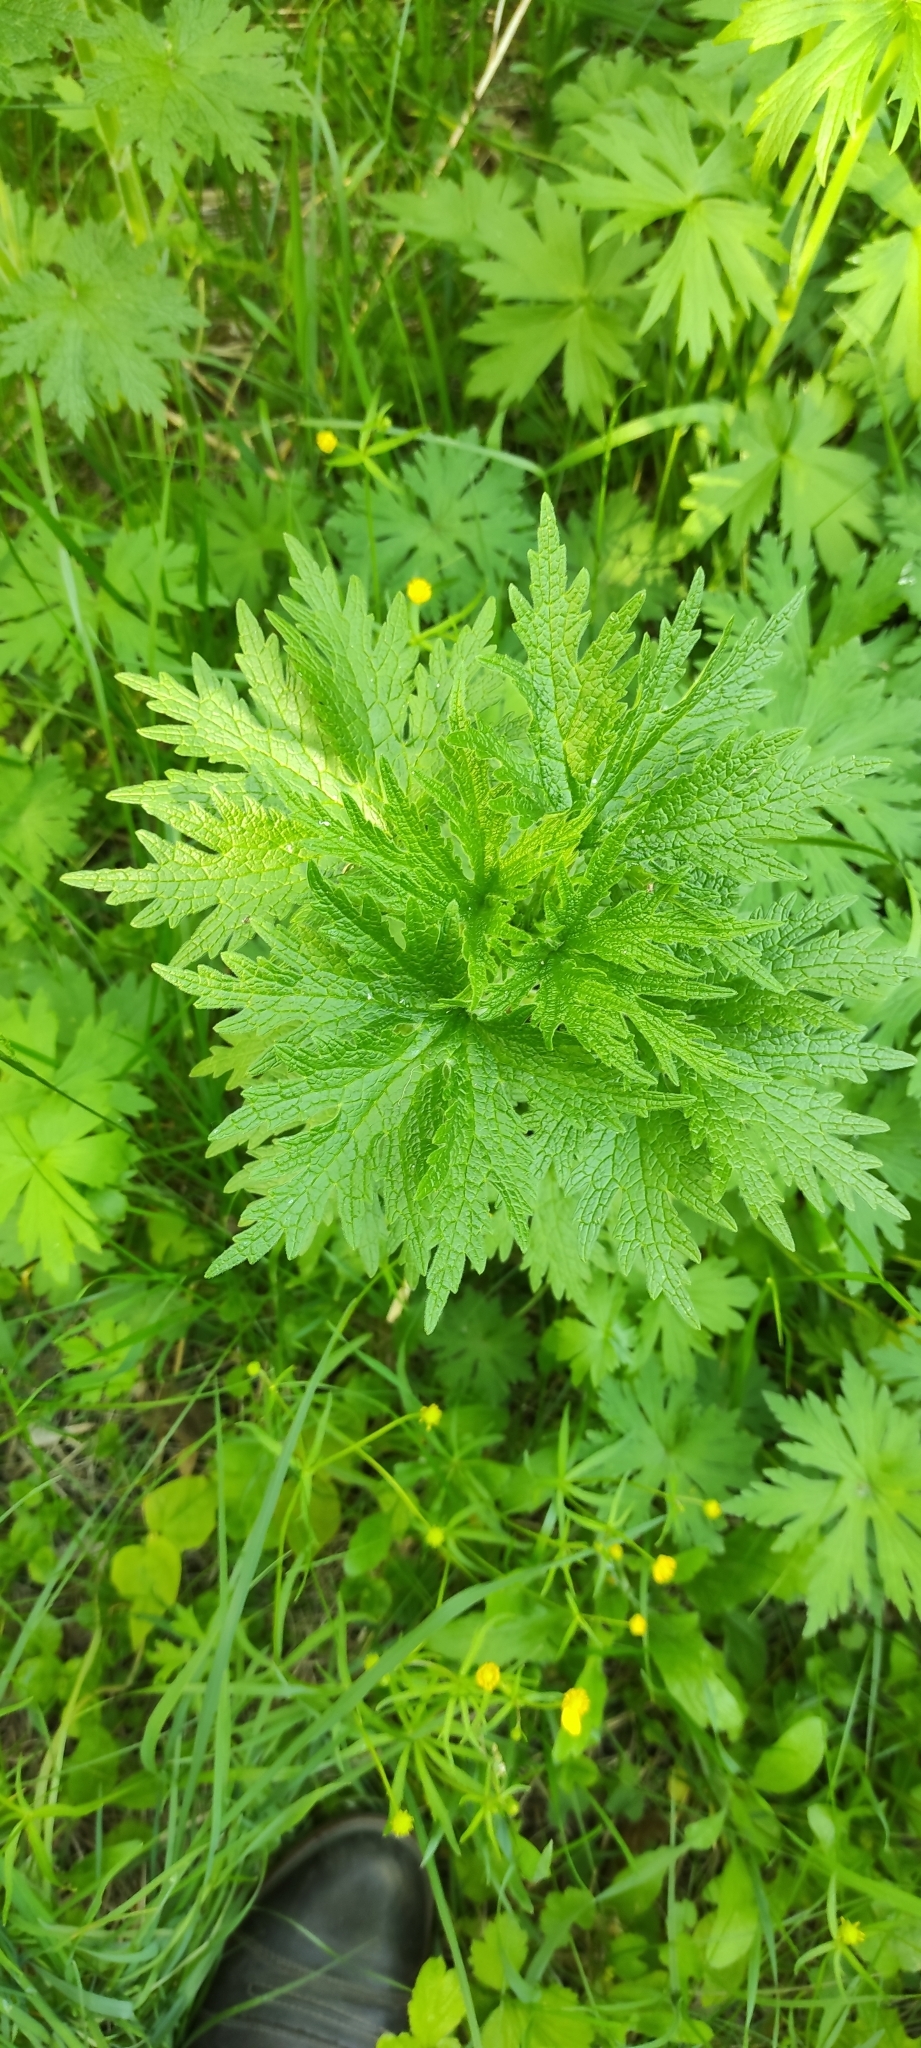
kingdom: Plantae
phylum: Tracheophyta
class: Magnoliopsida
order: Lamiales
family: Lamiaceae
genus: Leonurus
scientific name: Leonurus quinquelobatus
